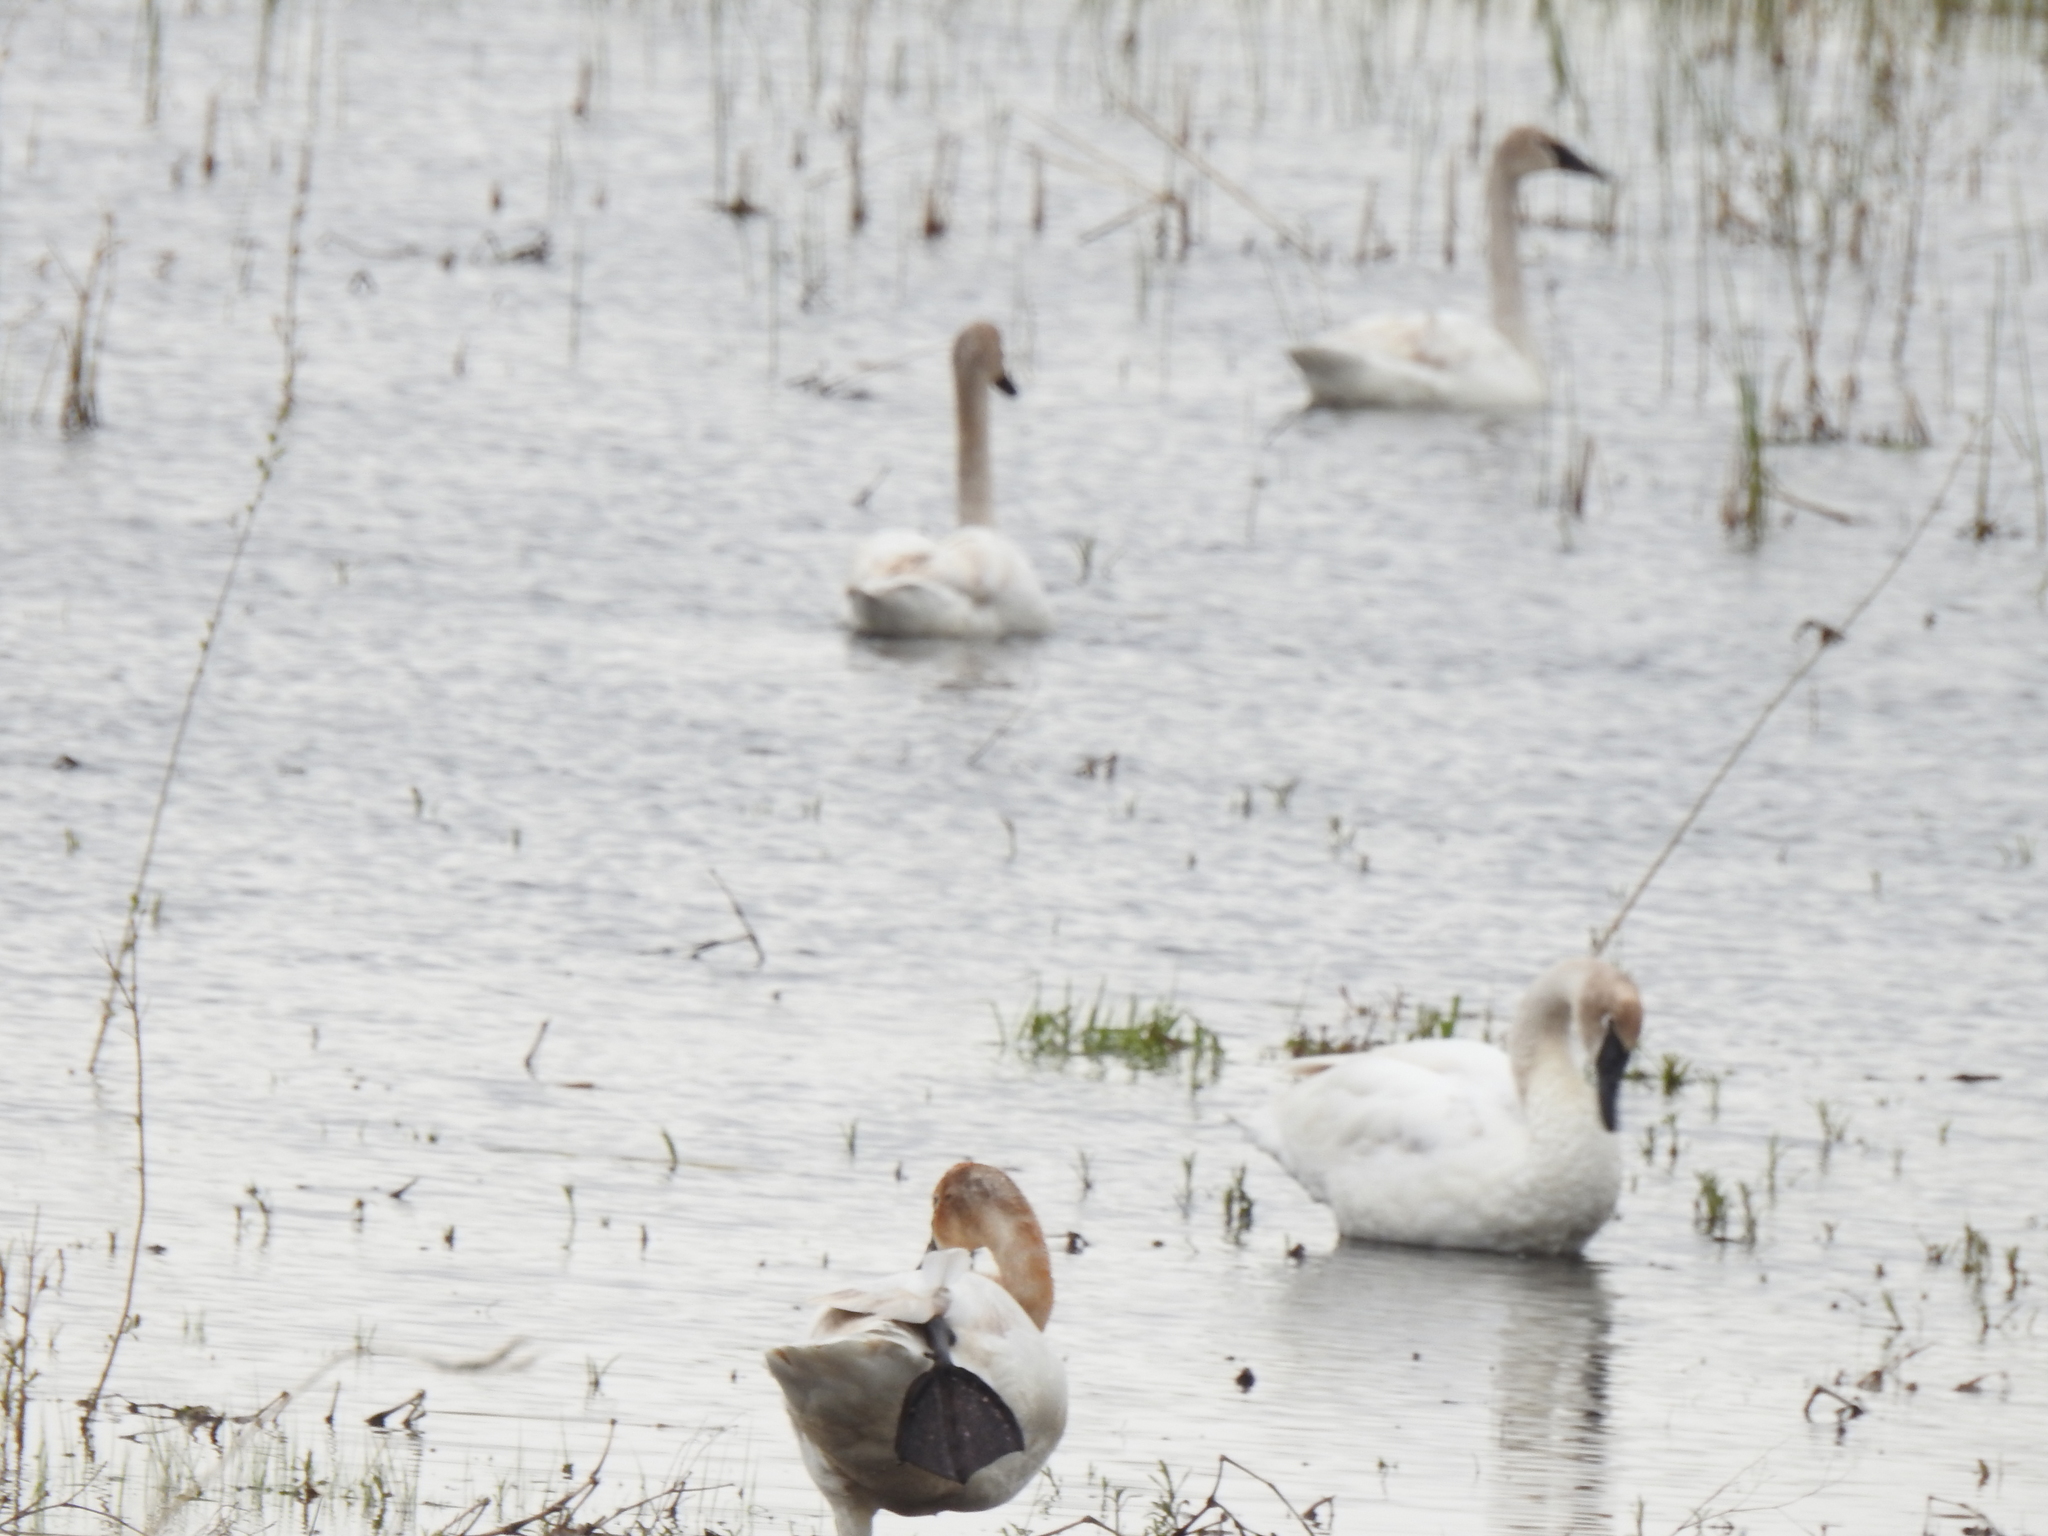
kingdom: Animalia
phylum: Chordata
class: Aves
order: Anseriformes
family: Anatidae
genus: Cygnus
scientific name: Cygnus buccinator
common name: Trumpeter swan
